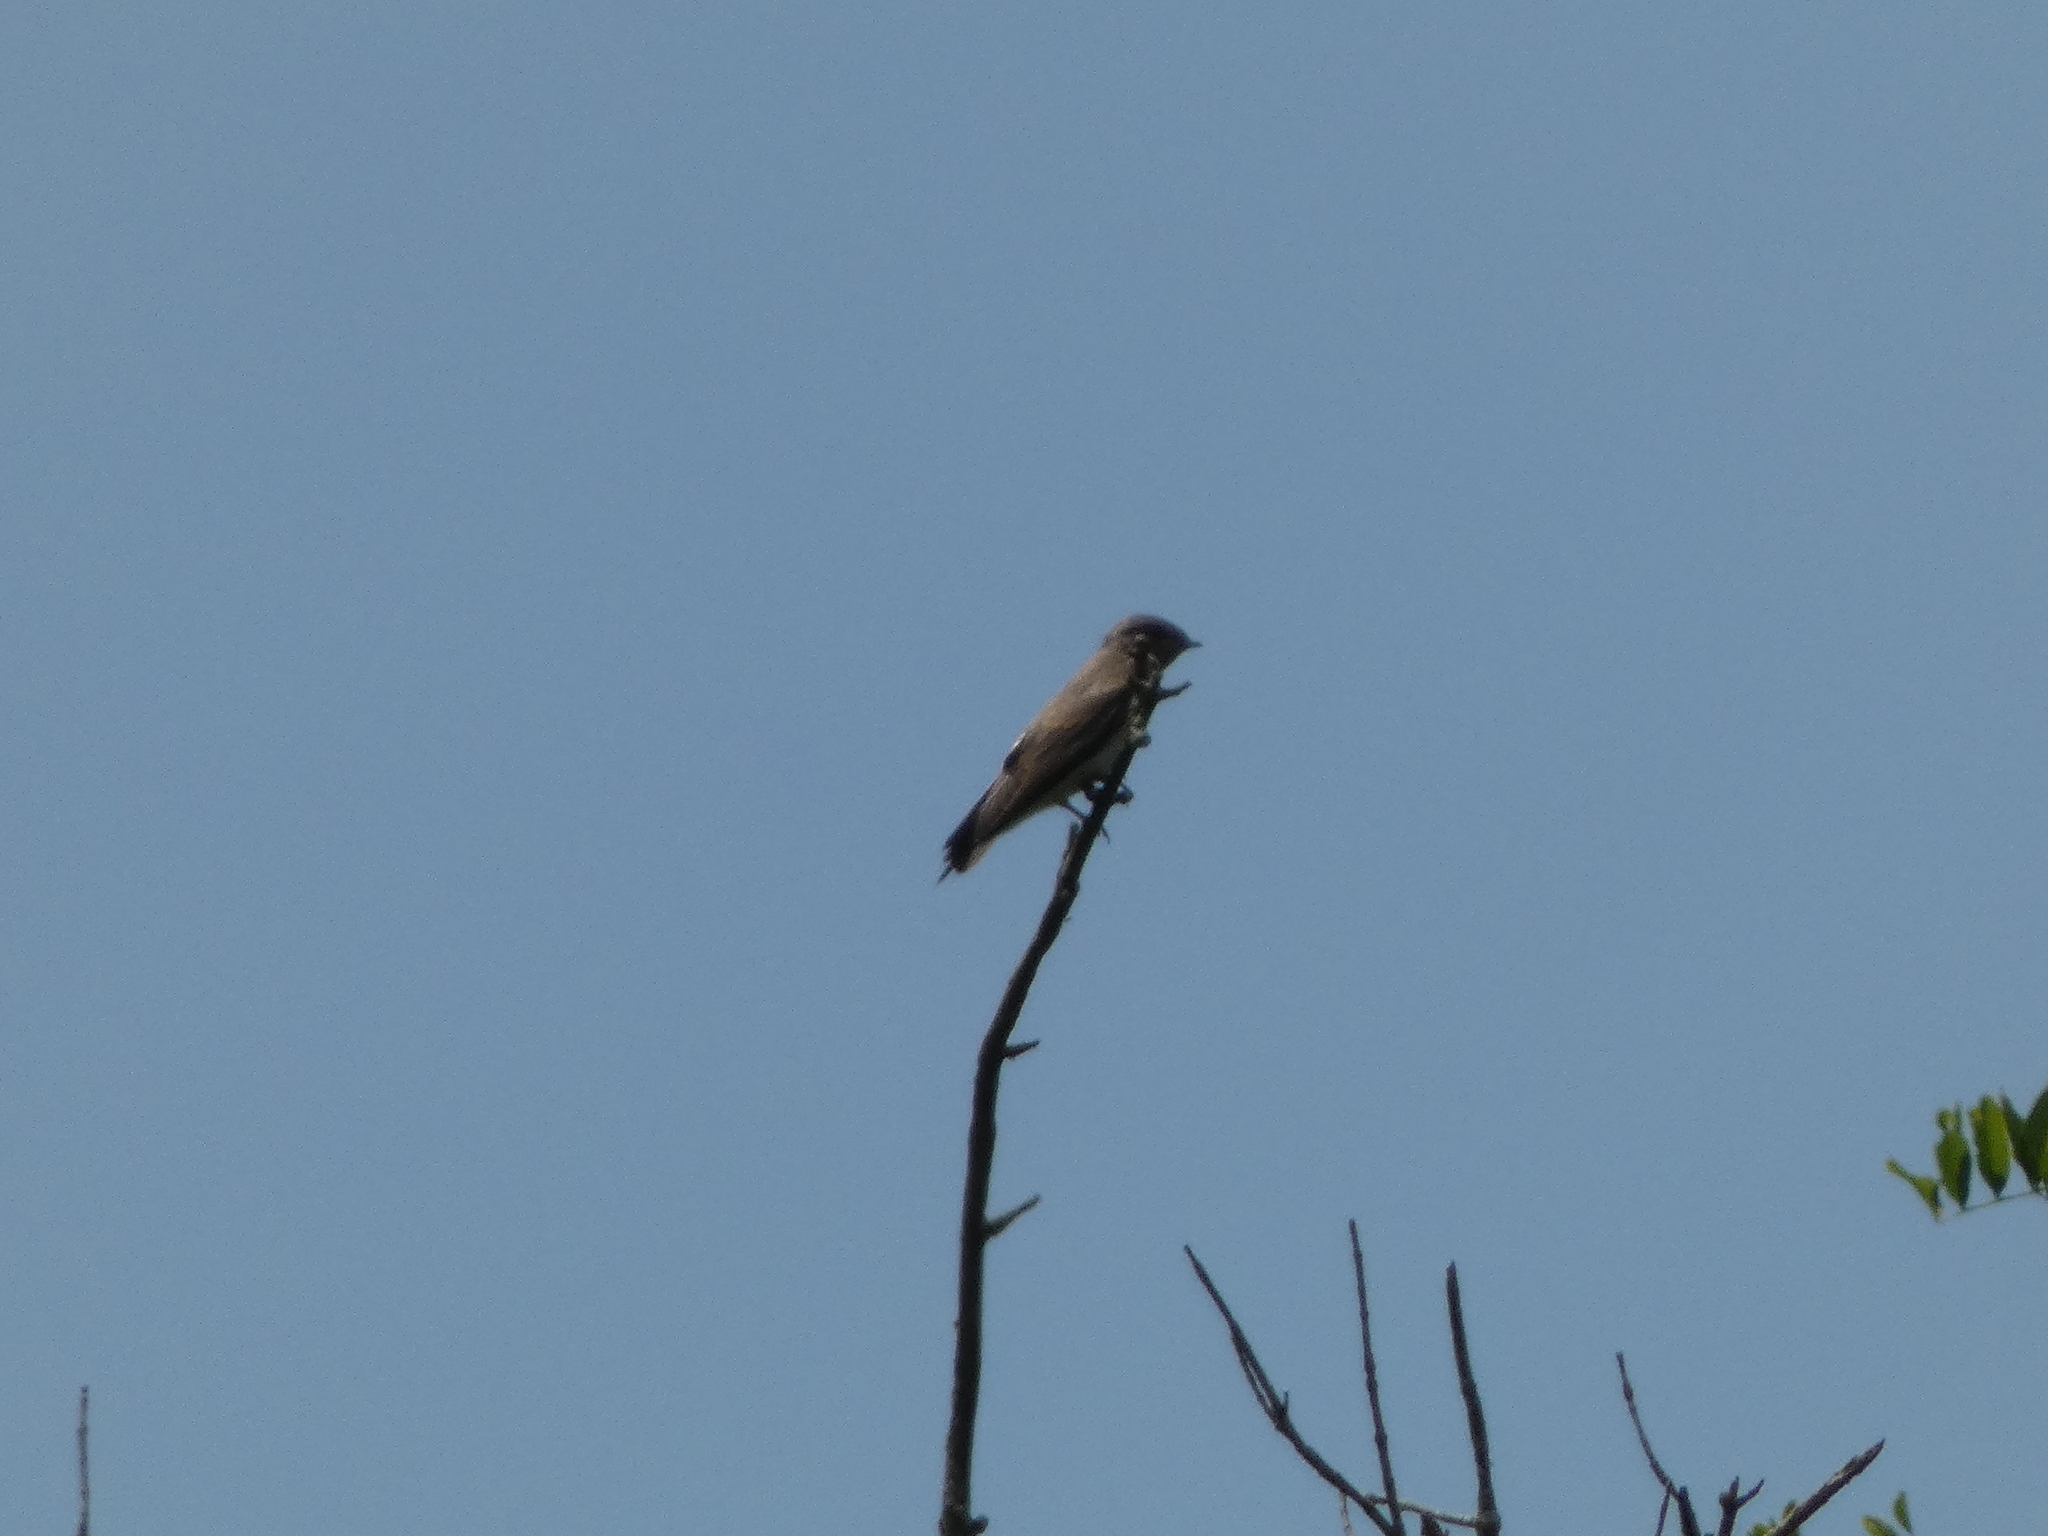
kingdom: Animalia
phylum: Chordata
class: Aves
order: Passeriformes
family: Hirundinidae
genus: Stelgidopteryx
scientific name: Stelgidopteryx serripennis
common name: Northern rough-winged swallow
